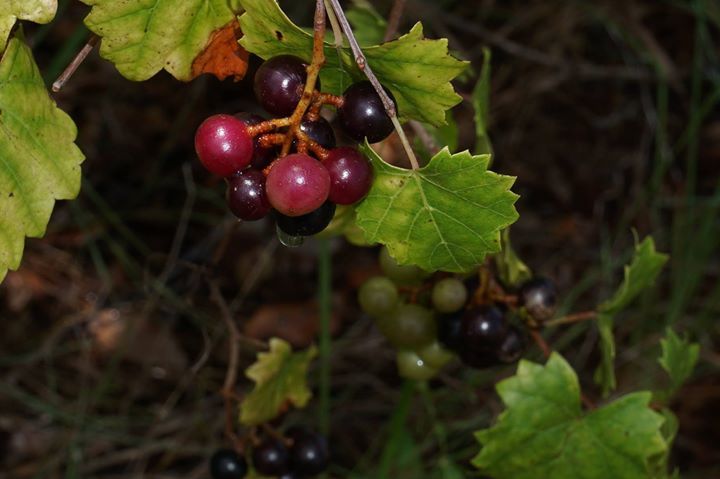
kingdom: Plantae
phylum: Tracheophyta
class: Magnoliopsida
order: Vitales
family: Vitaceae
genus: Vitis
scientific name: Vitis rotundifolia
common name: Muscadine grape
